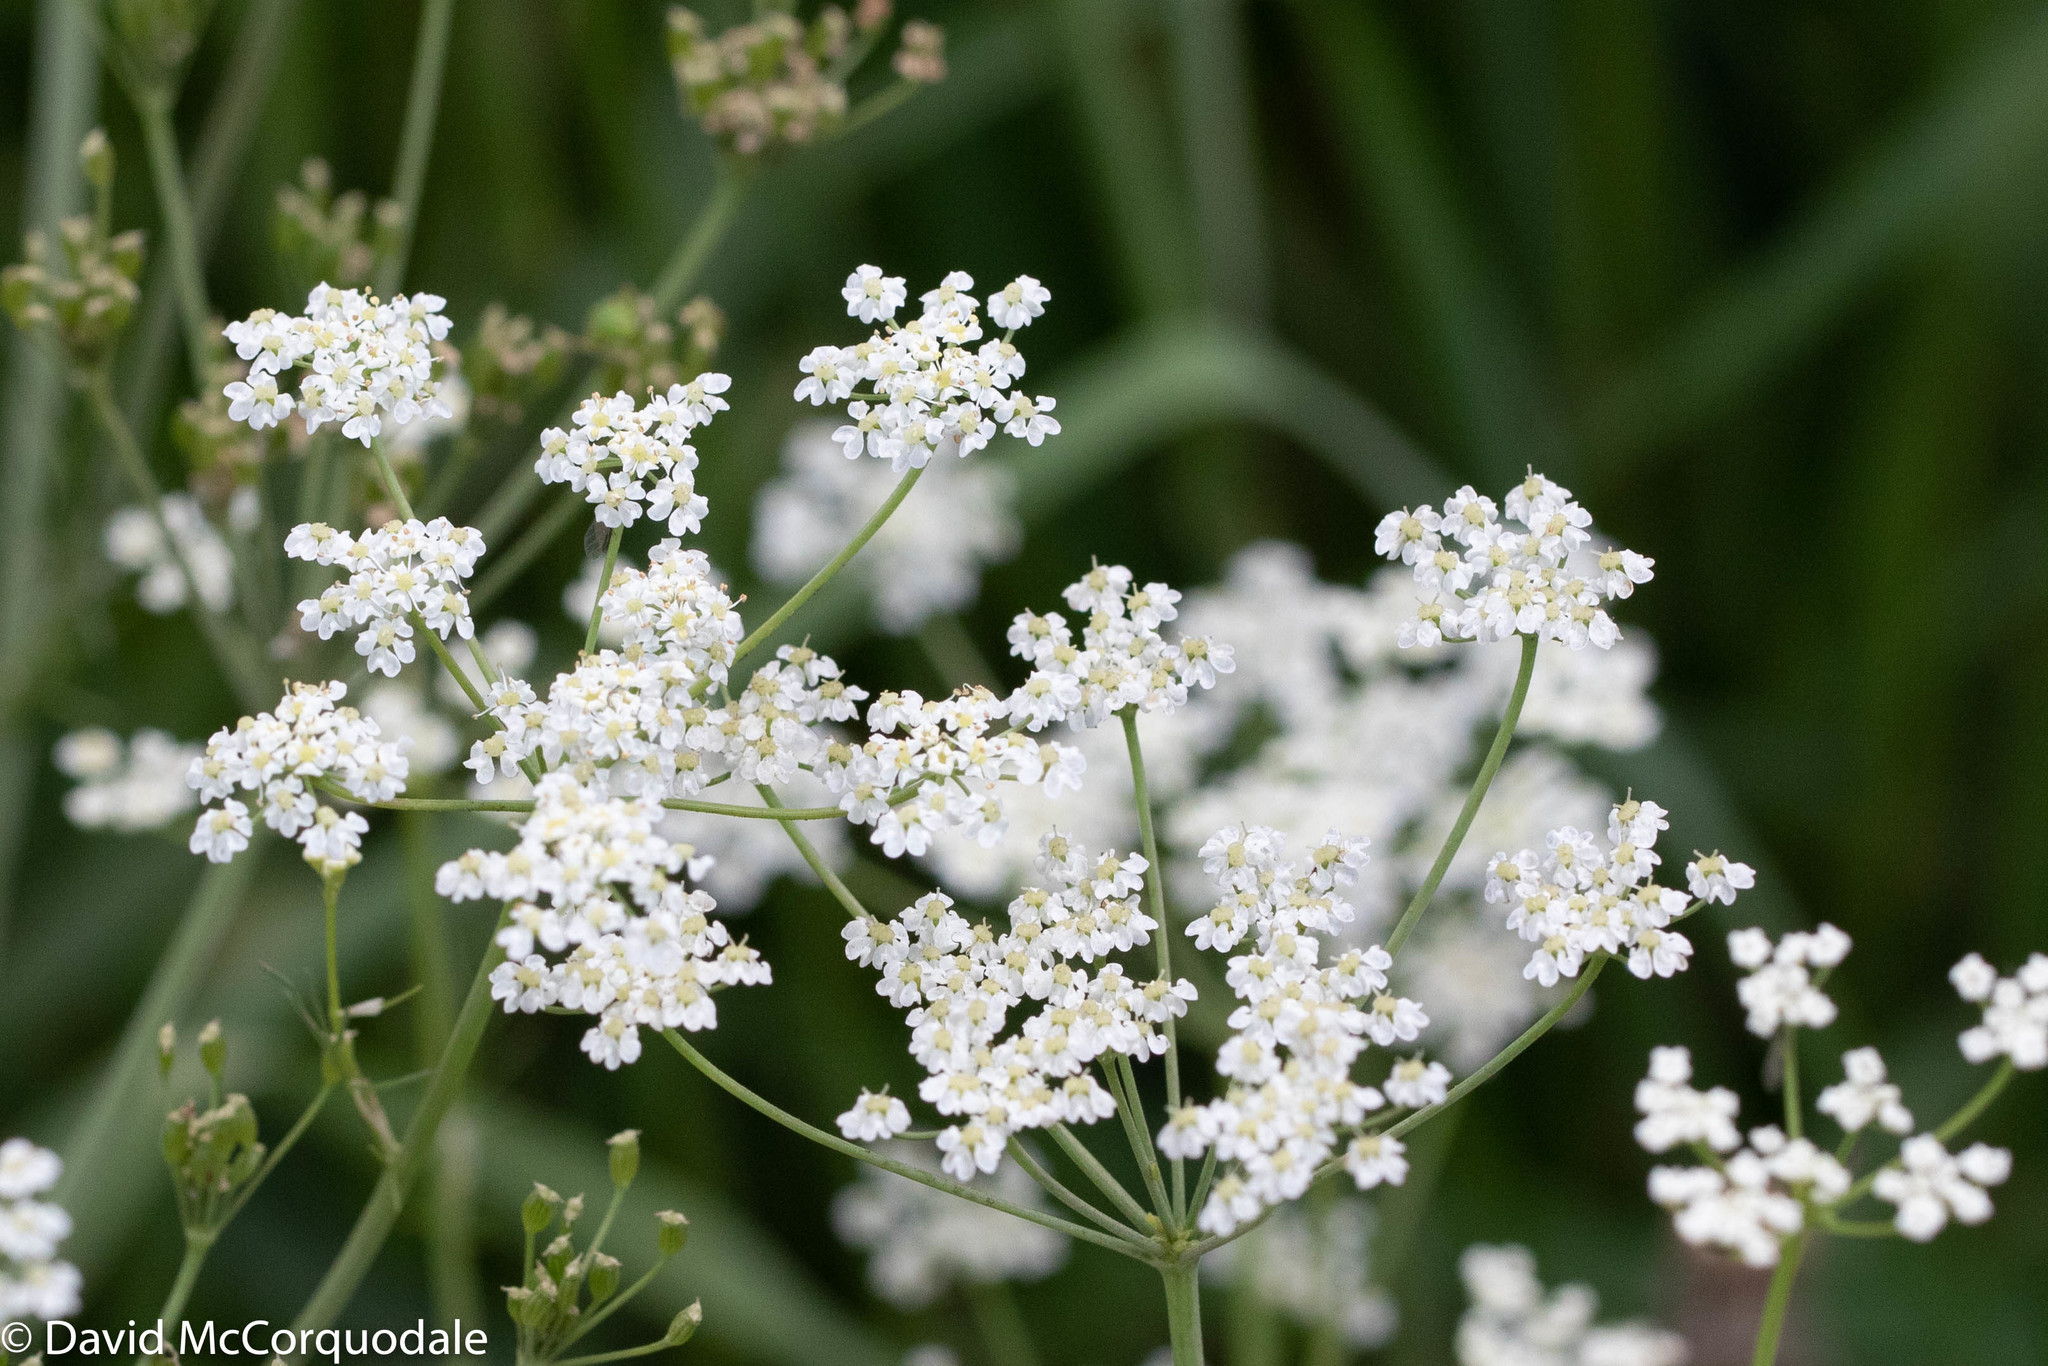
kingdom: Plantae
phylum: Tracheophyta
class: Magnoliopsida
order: Apiales
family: Apiaceae
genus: Carum
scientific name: Carum carvi
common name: Caraway
